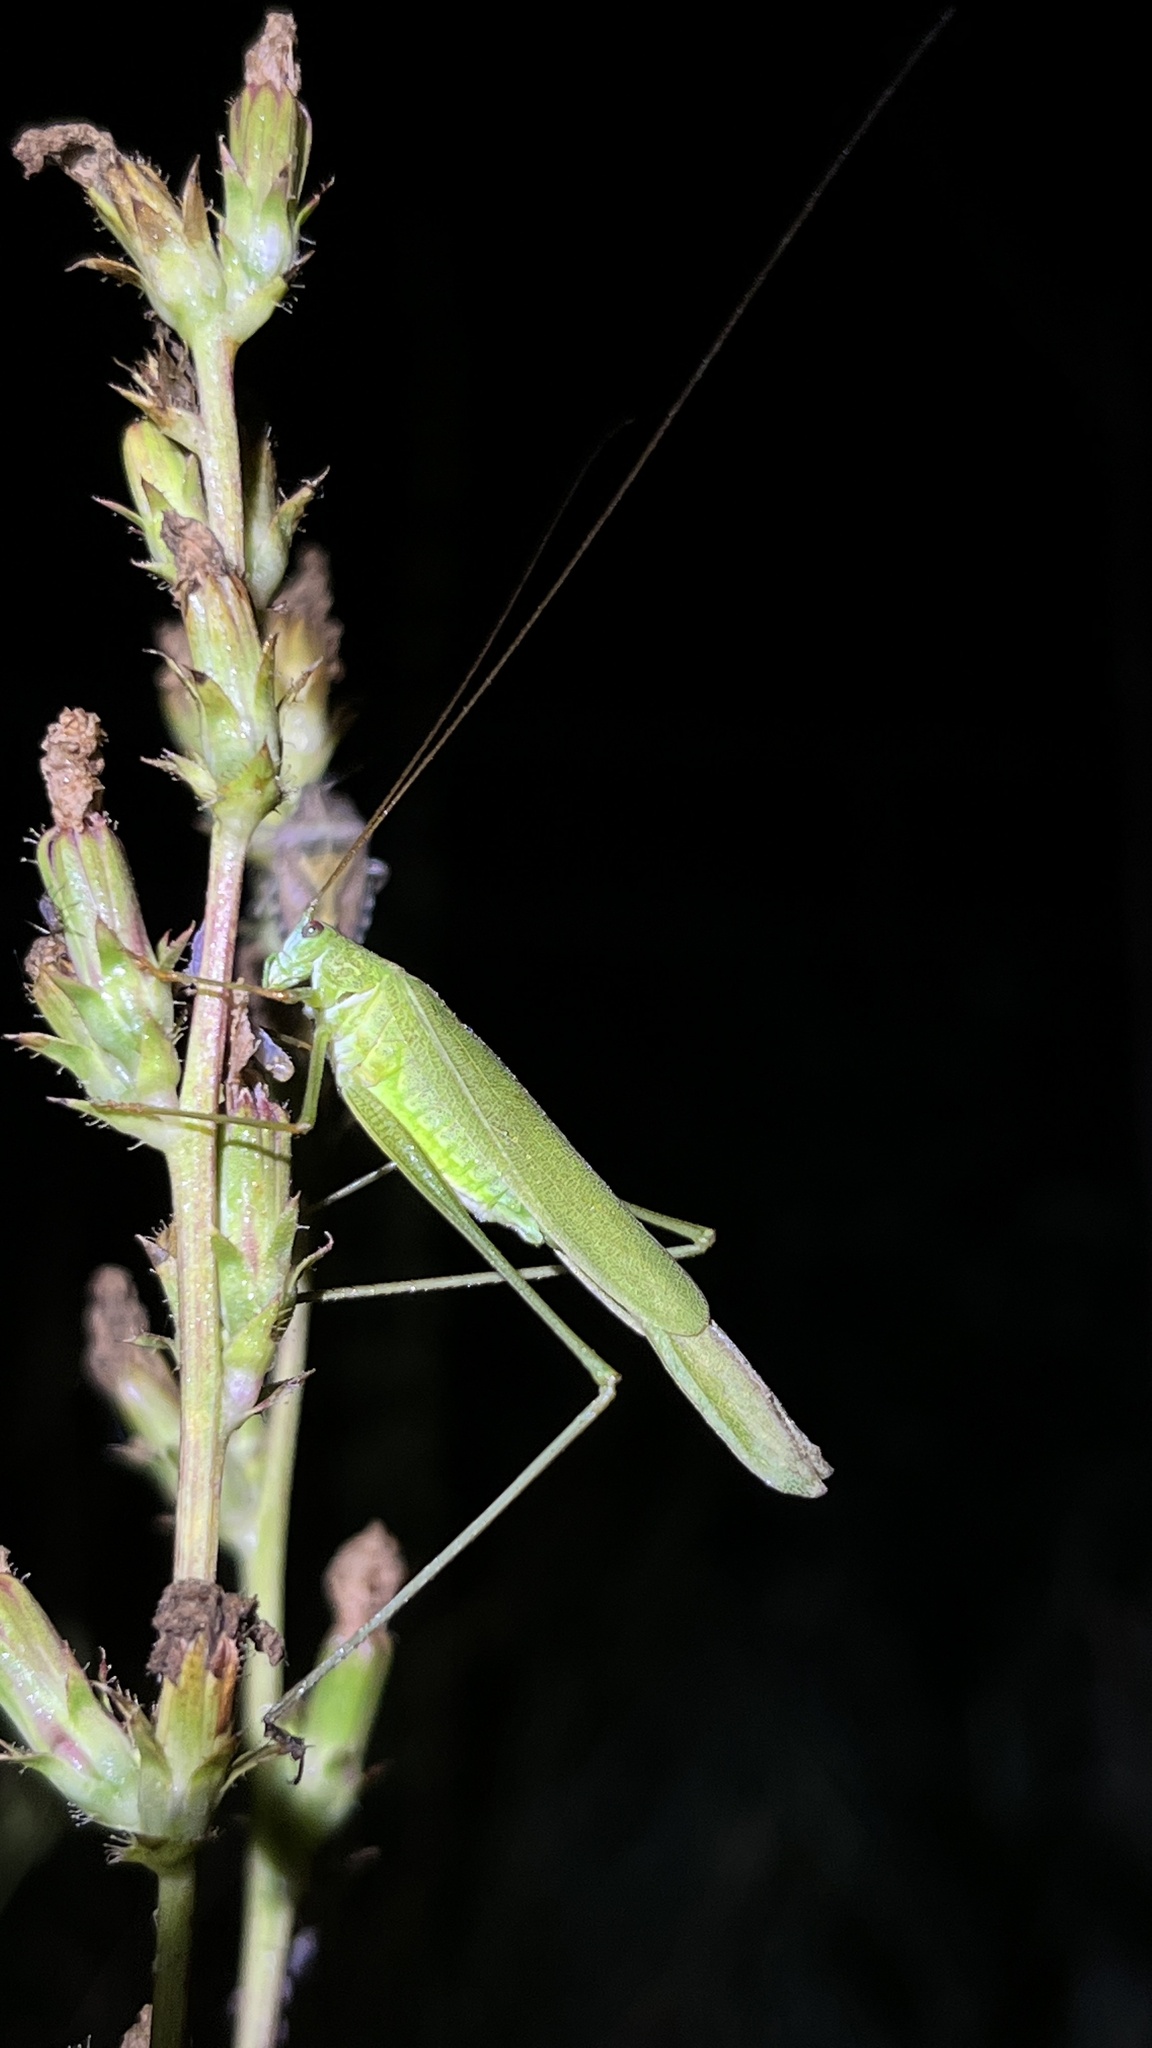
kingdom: Animalia
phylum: Arthropoda
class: Insecta
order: Orthoptera
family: Tettigoniidae
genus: Phaneroptera
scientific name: Phaneroptera falcata
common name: Sickle-bearing bush-cricket
